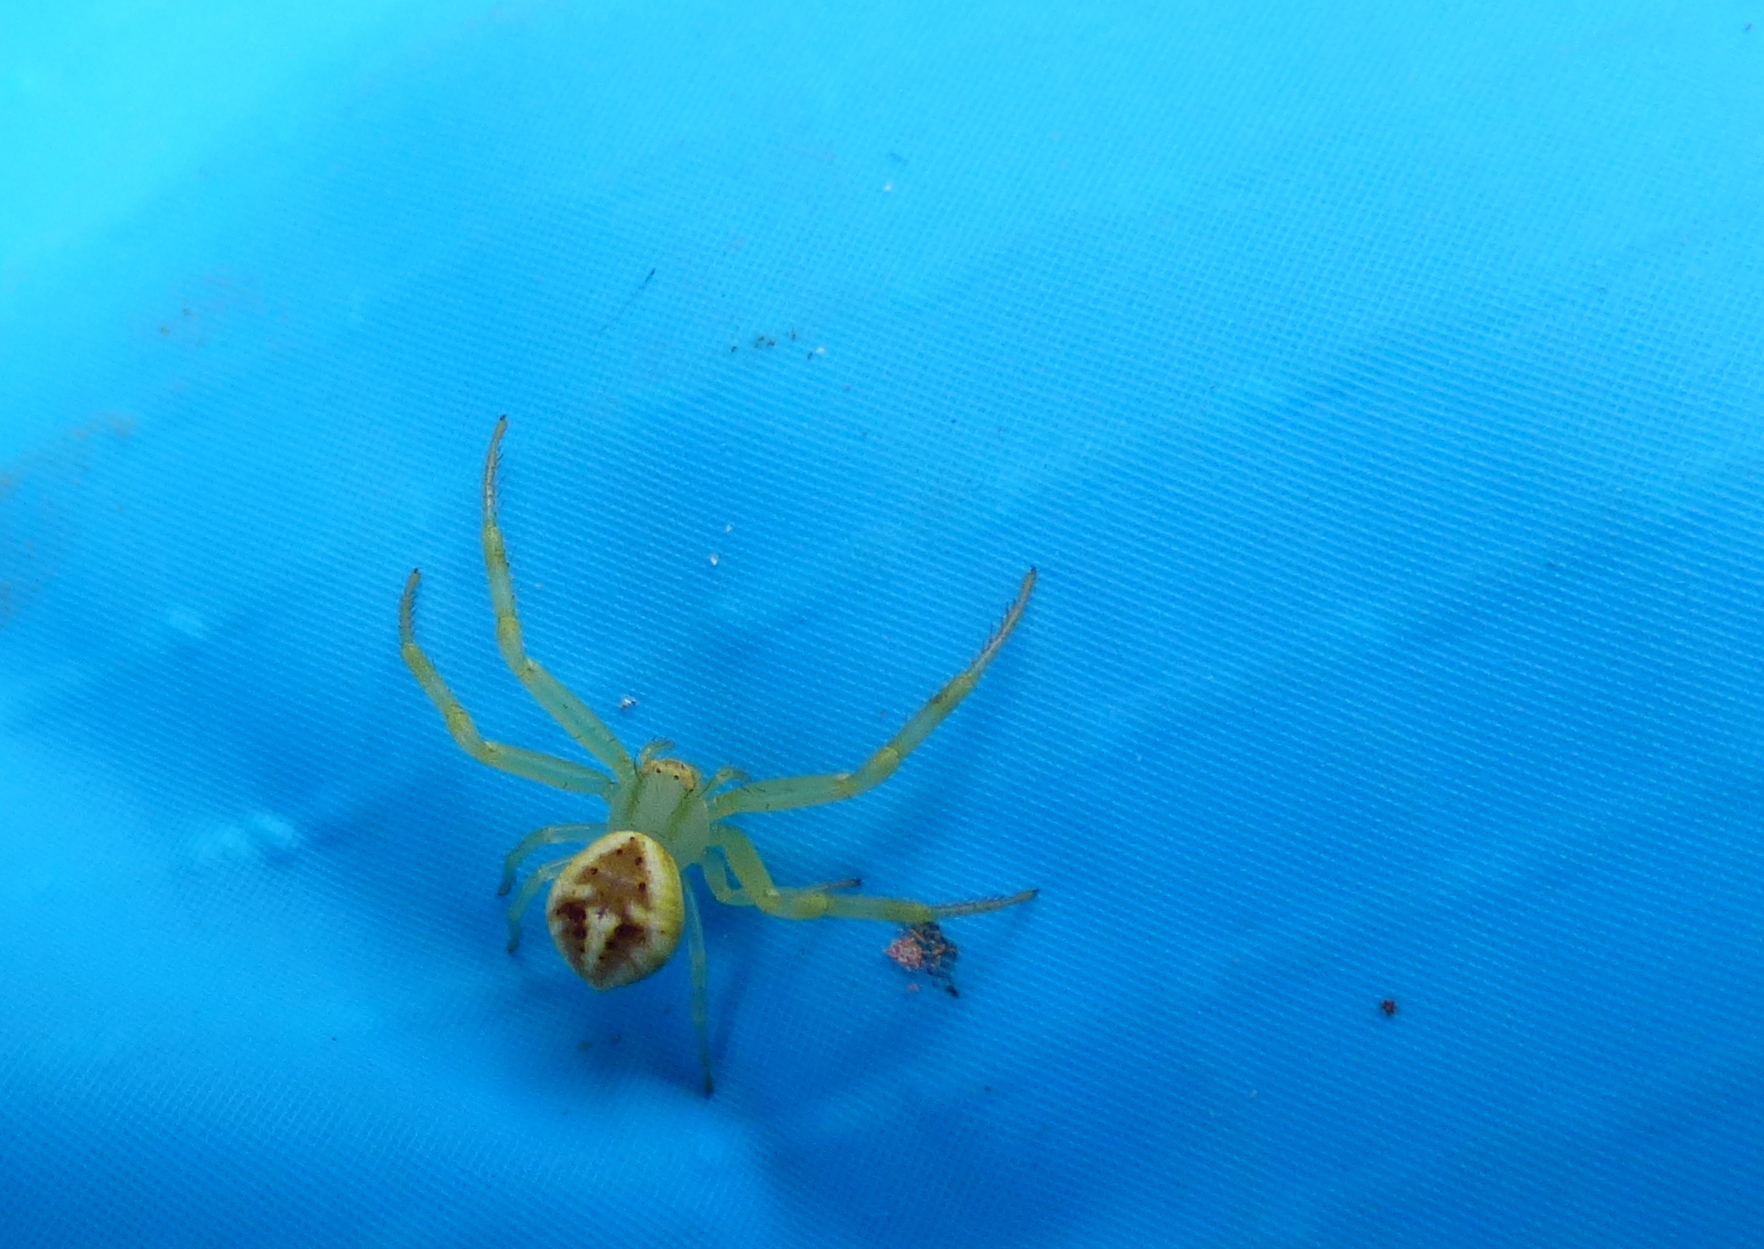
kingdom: Animalia
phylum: Arthropoda
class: Arachnida
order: Araneae
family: Thomisidae
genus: Misumenops
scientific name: Misumenops
